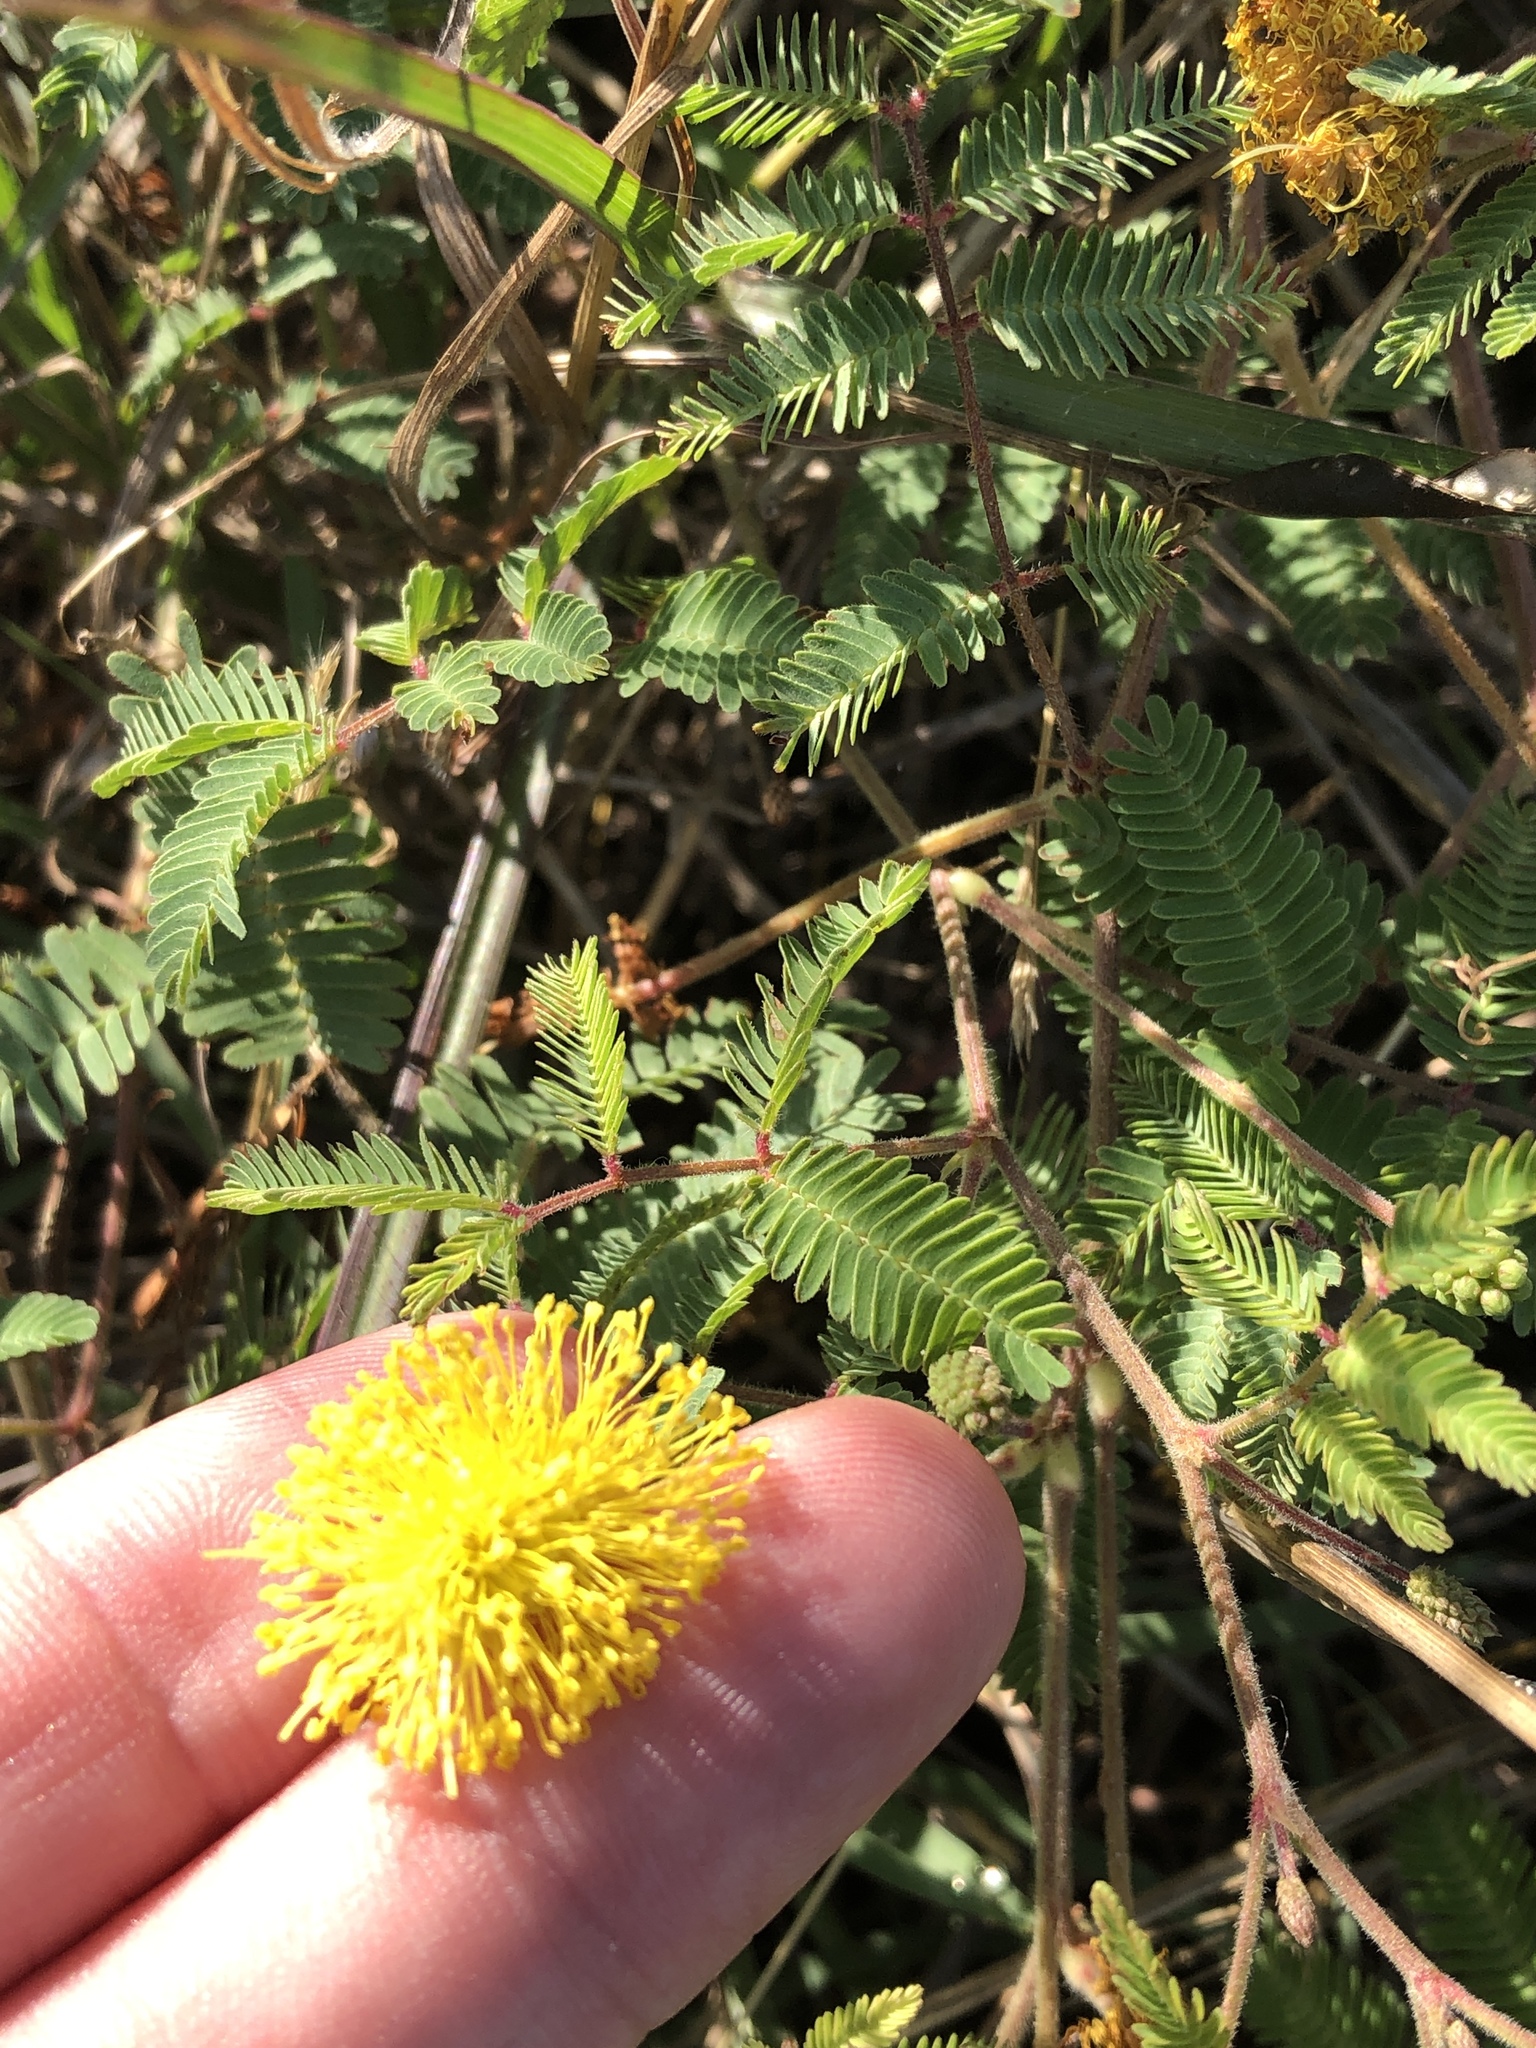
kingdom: Plantae
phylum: Tracheophyta
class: Magnoliopsida
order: Fabales
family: Fabaceae
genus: Neptunia
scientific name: Neptunia lutea
